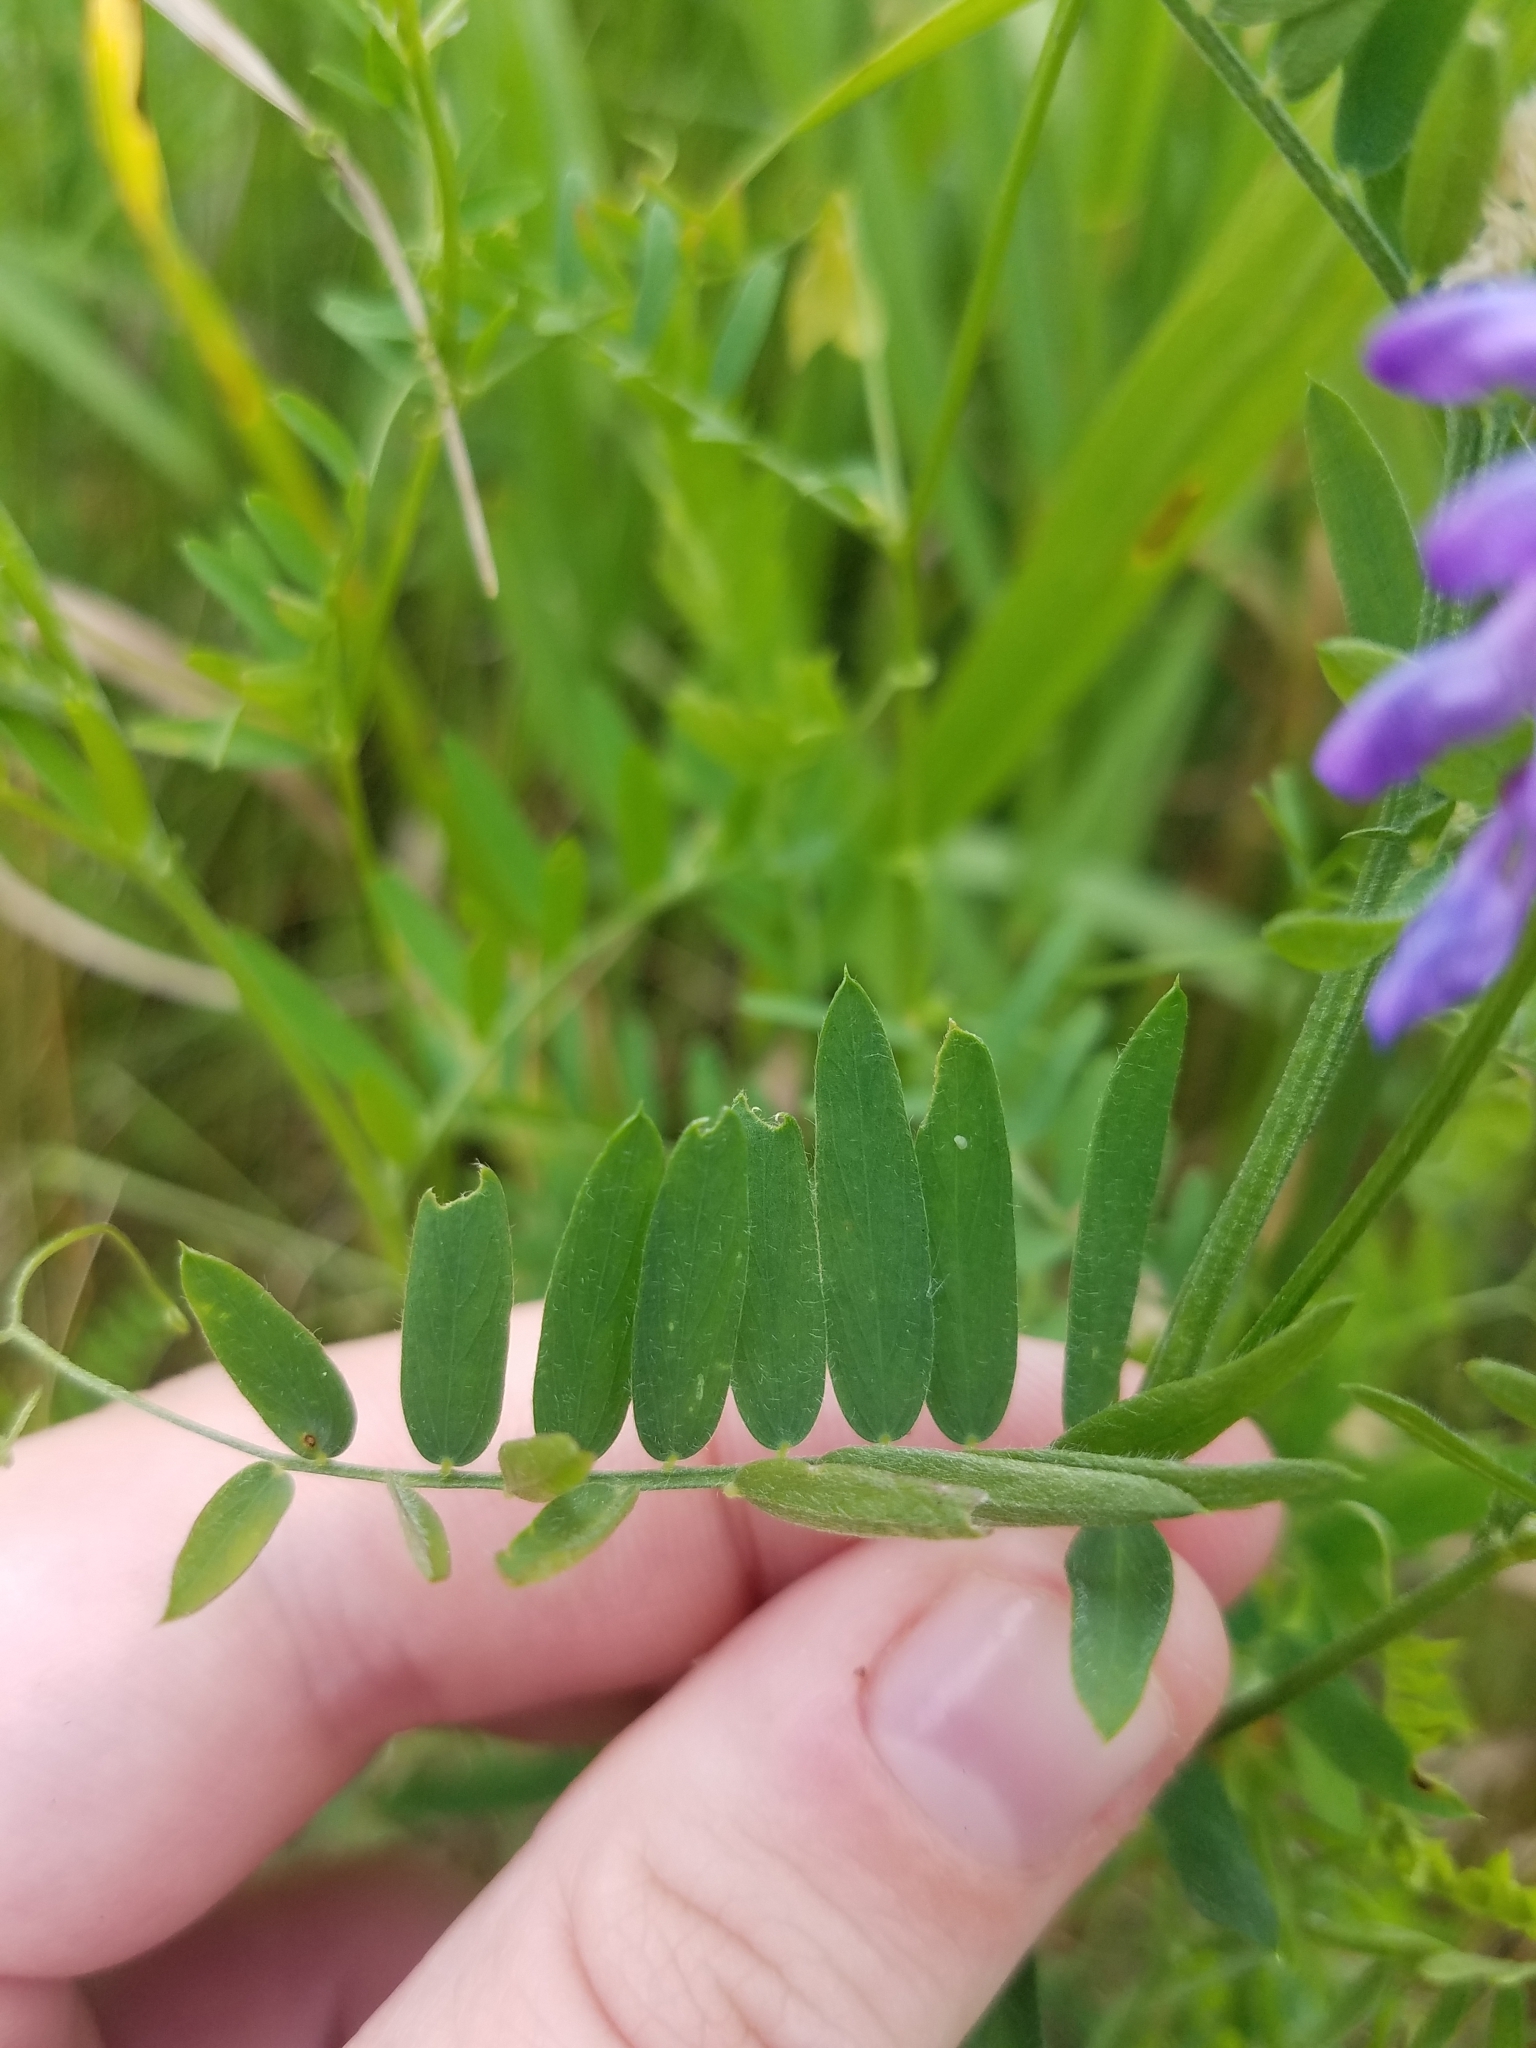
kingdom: Plantae
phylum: Tracheophyta
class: Magnoliopsida
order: Fabales
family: Fabaceae
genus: Vicia
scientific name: Vicia cracca
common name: Bird vetch
